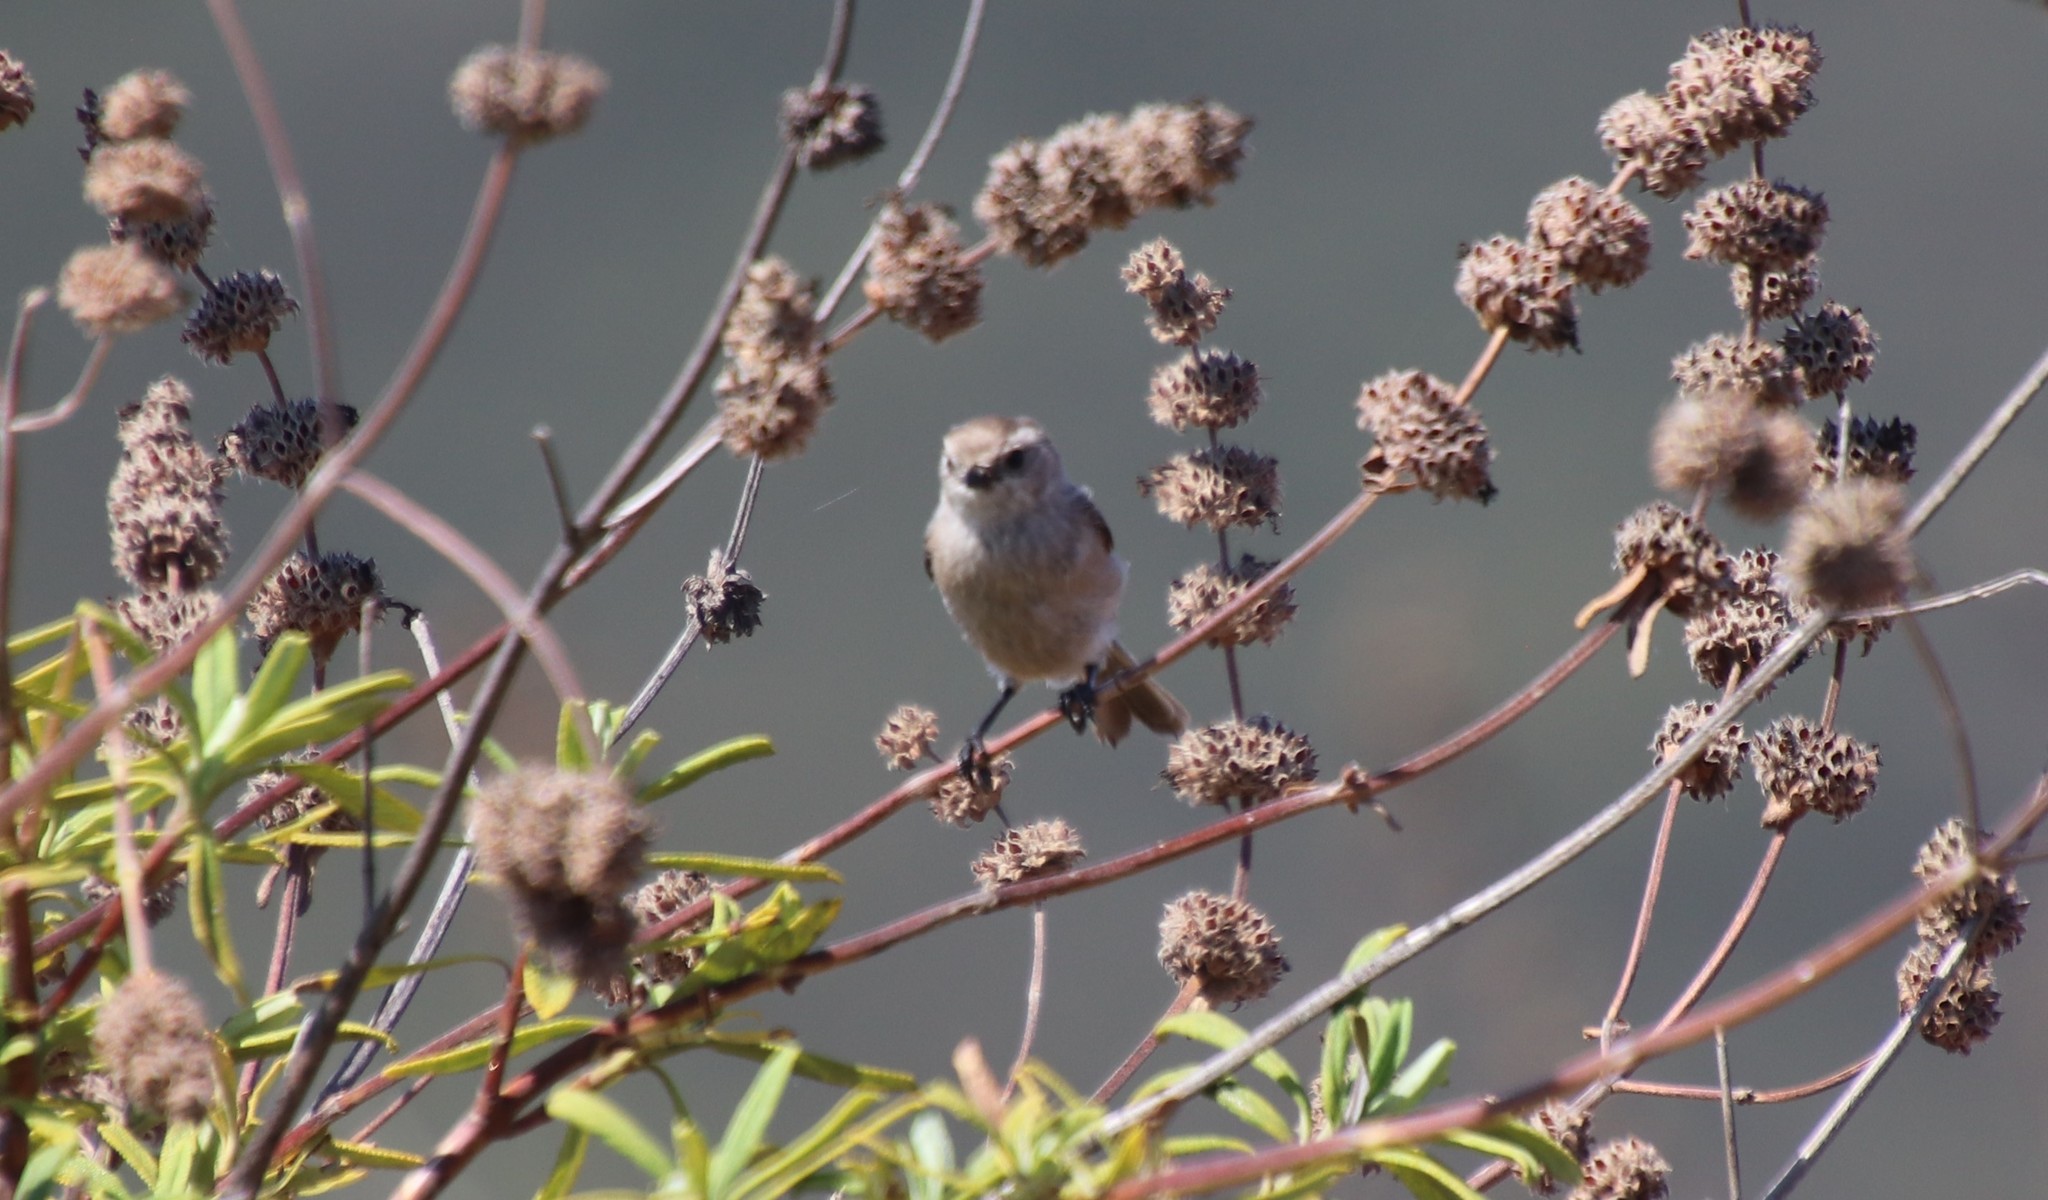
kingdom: Animalia
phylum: Chordata
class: Aves
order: Passeriformes
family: Aegithalidae
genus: Psaltriparus
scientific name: Psaltriparus minimus
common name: American bushtit
